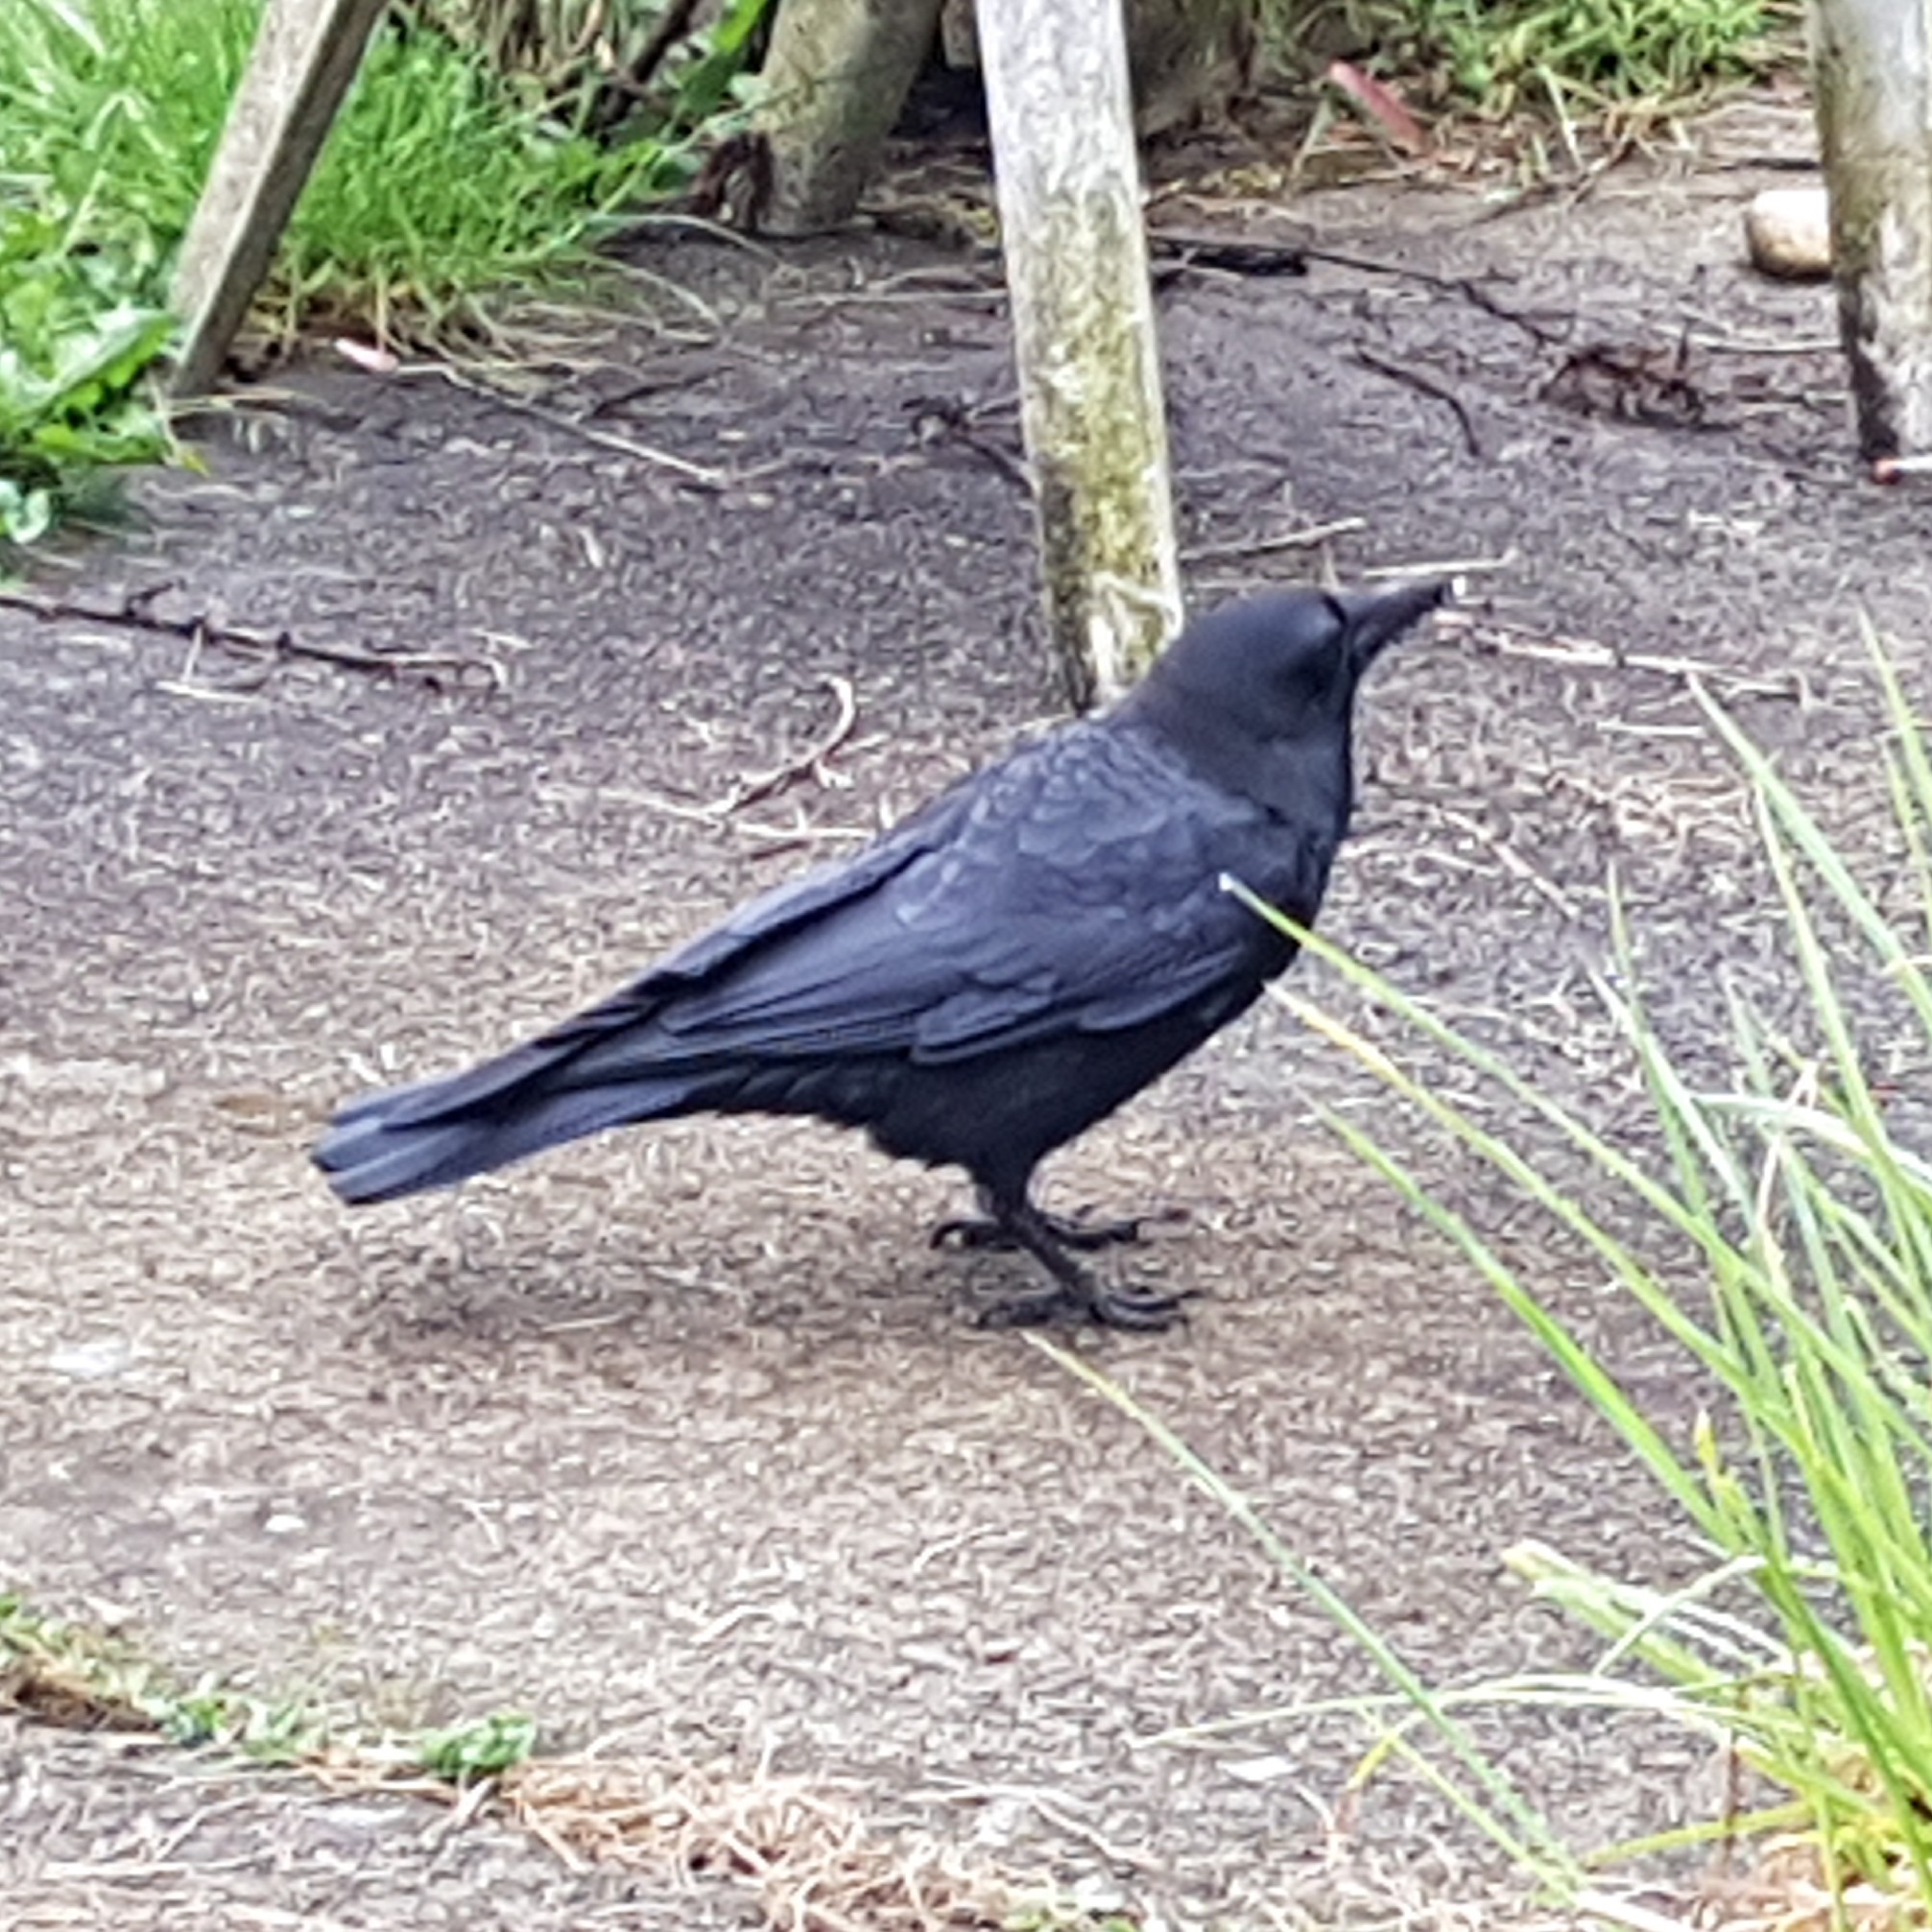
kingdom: Animalia
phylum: Chordata
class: Aves
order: Passeriformes
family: Corvidae
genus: Corvus
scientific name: Corvus brachyrhynchos
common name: American crow
